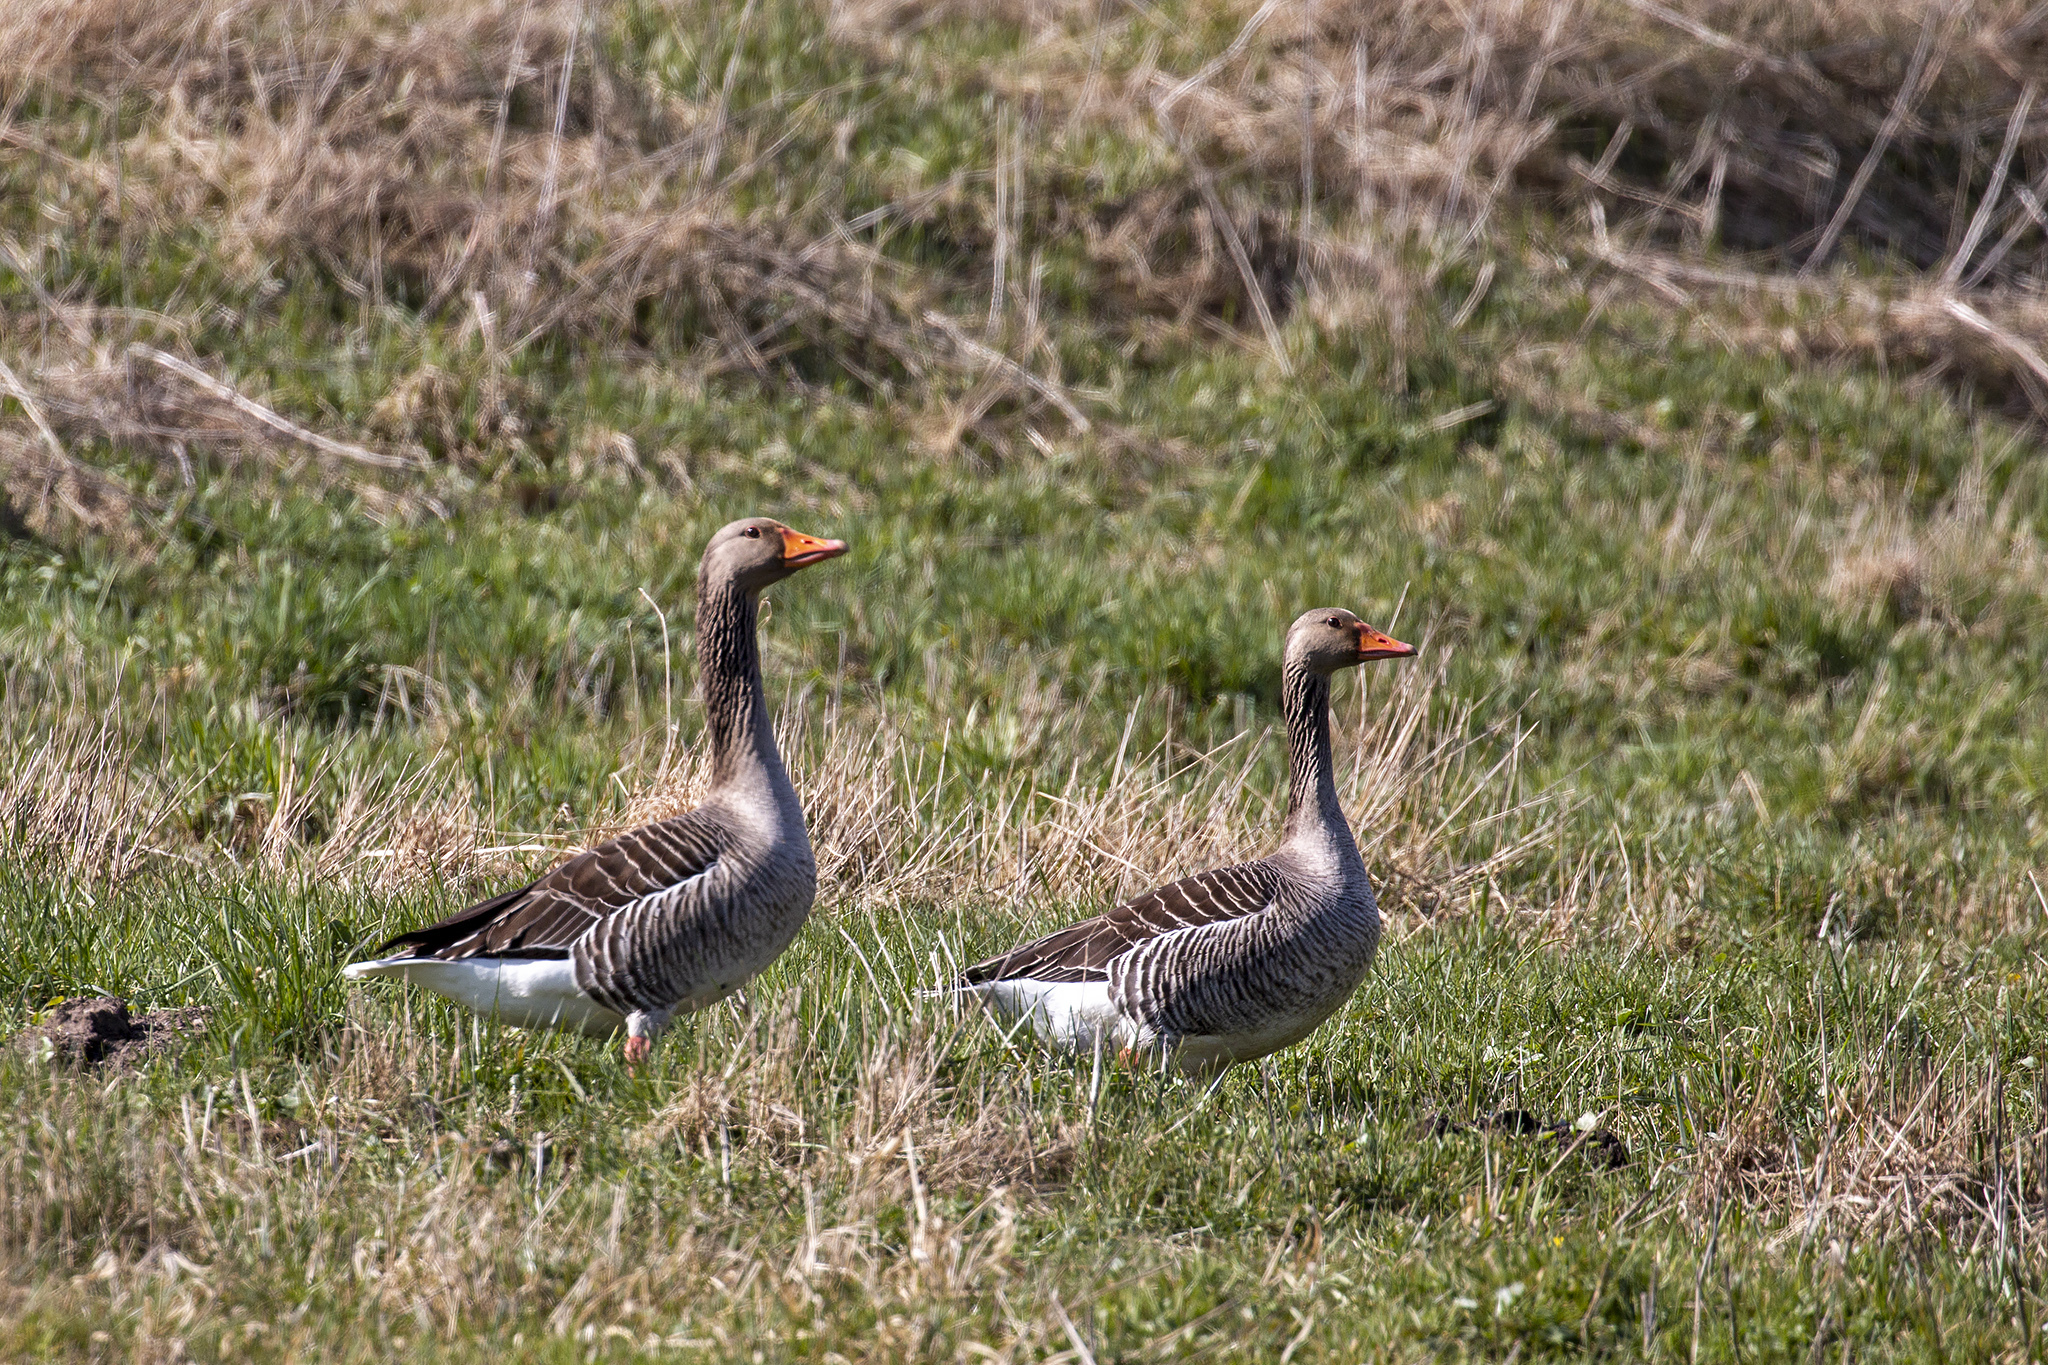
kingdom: Animalia
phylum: Chordata
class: Aves
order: Anseriformes
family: Anatidae
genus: Anser
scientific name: Anser anser
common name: Greylag goose
